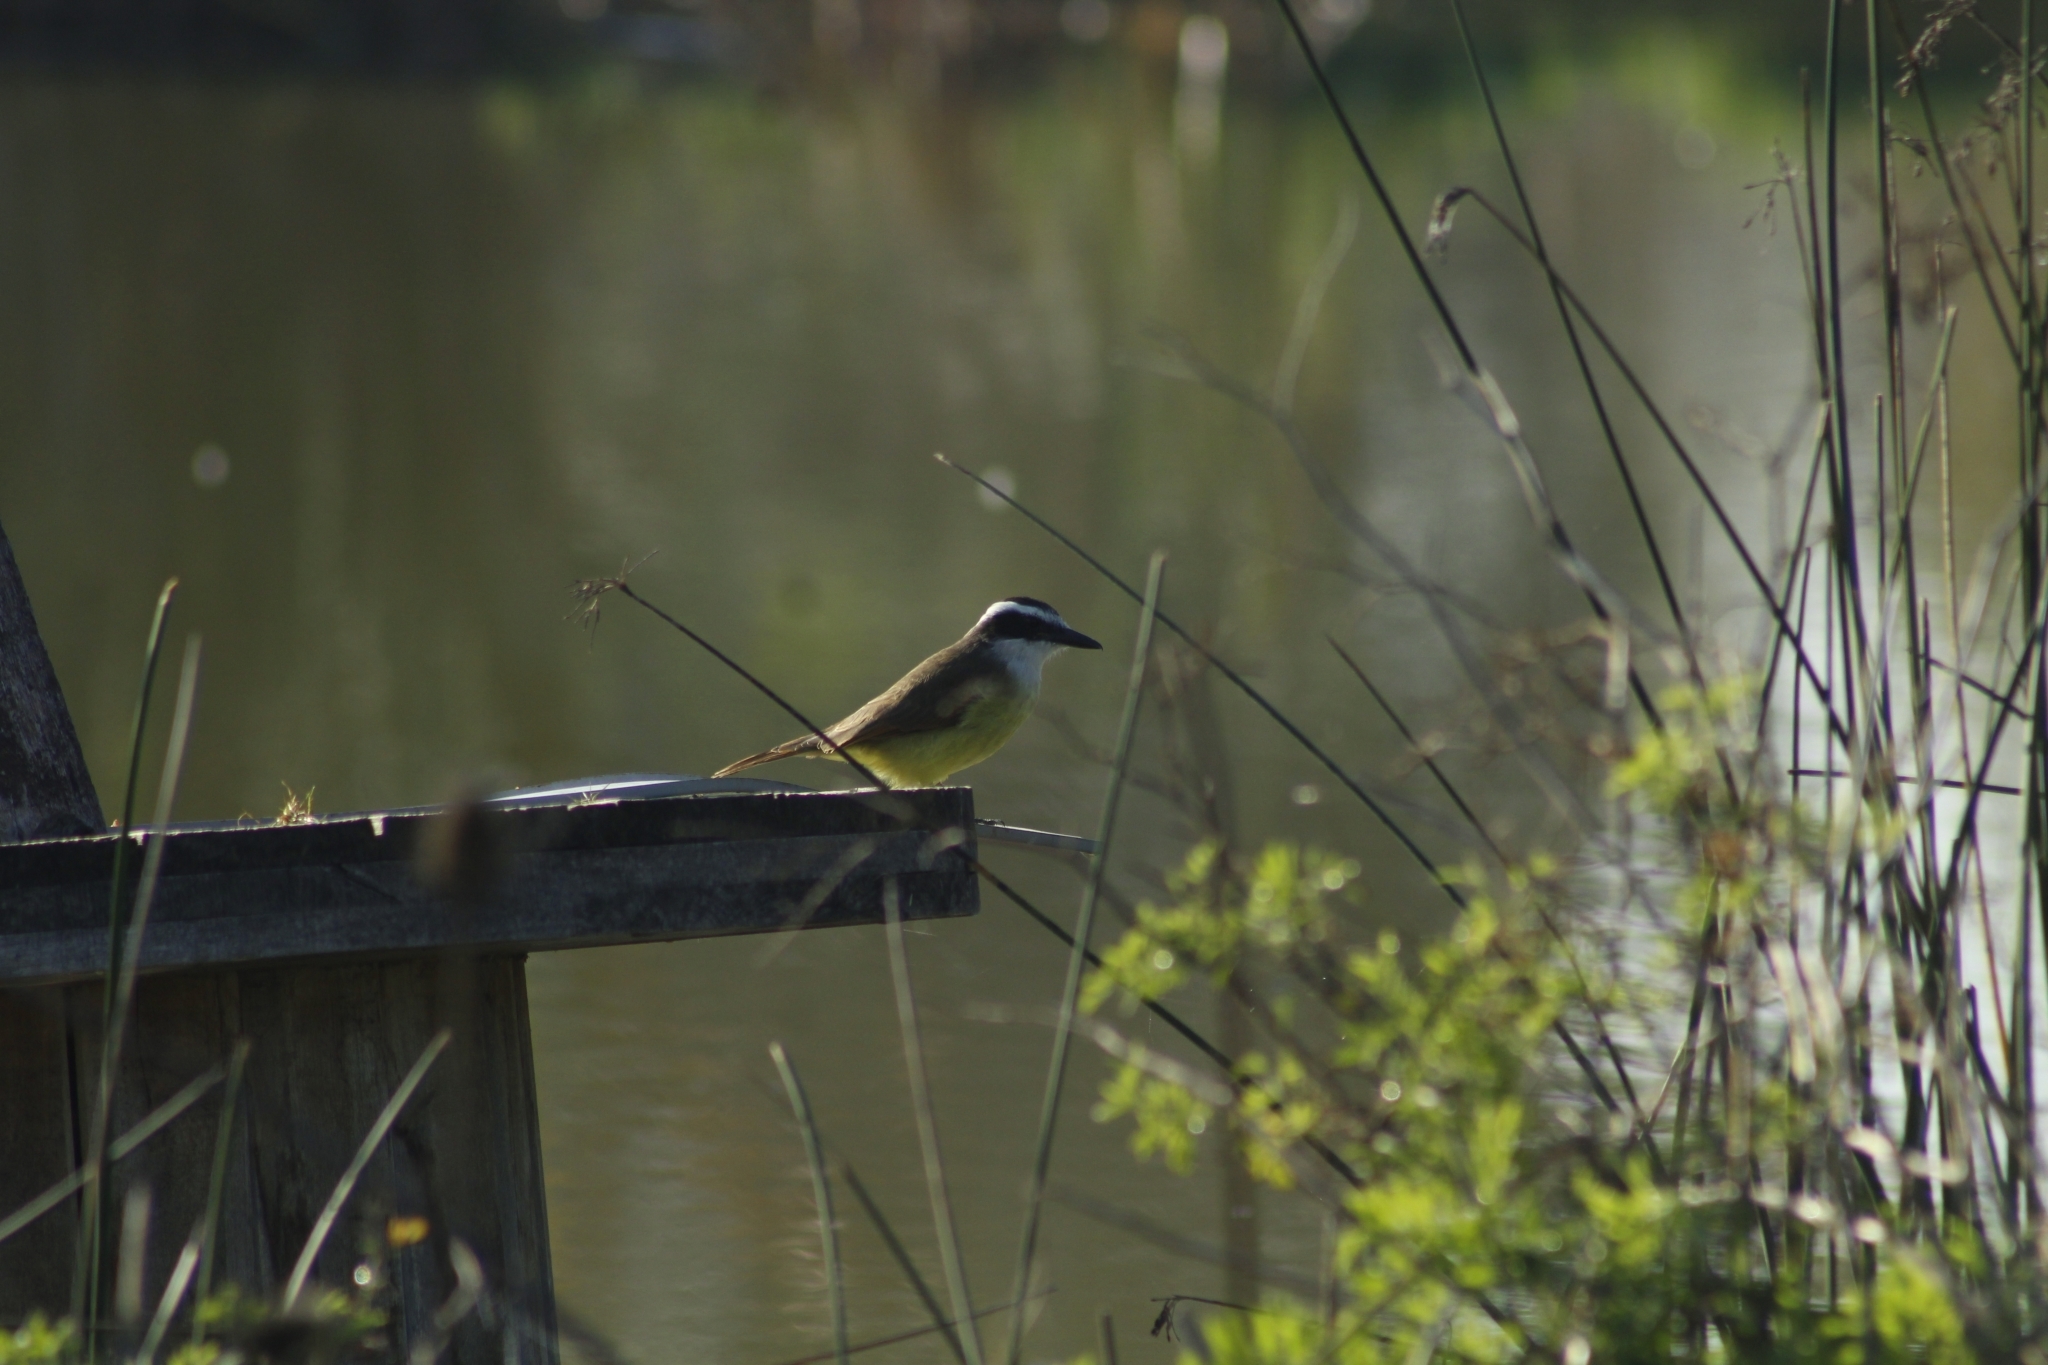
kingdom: Animalia
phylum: Chordata
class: Aves
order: Passeriformes
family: Tyrannidae
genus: Pitangus
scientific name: Pitangus sulphuratus
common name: Great kiskadee
